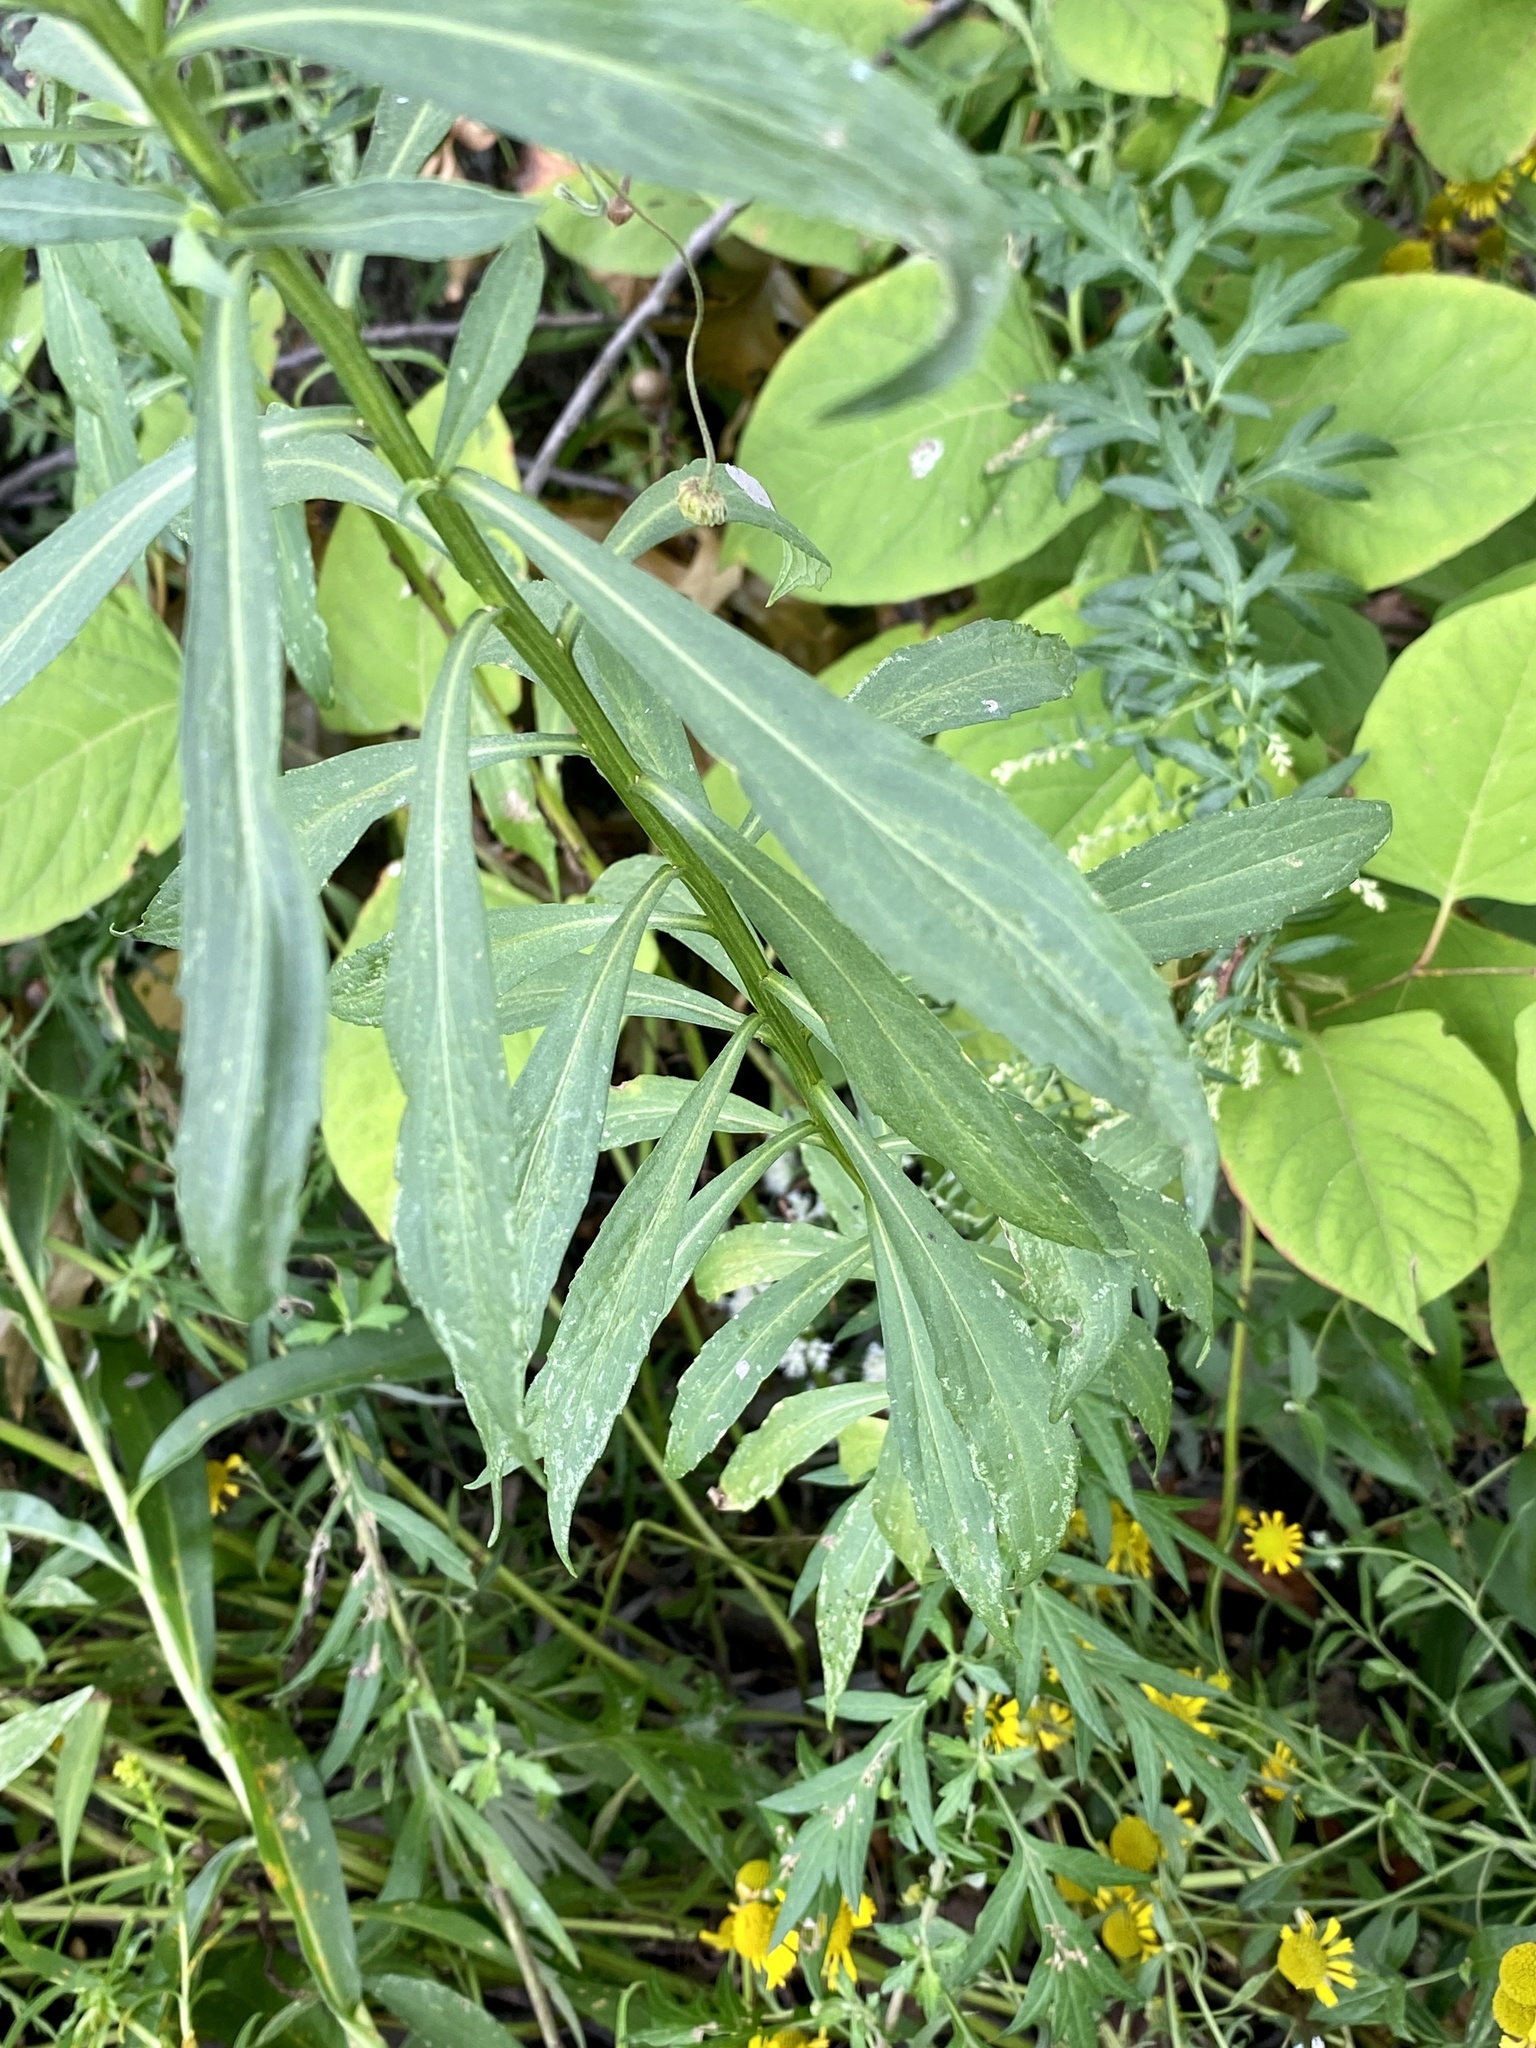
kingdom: Plantae
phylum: Tracheophyta
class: Magnoliopsida
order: Asterales
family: Asteraceae
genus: Helenium
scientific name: Helenium autumnale
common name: Sneezeweed
